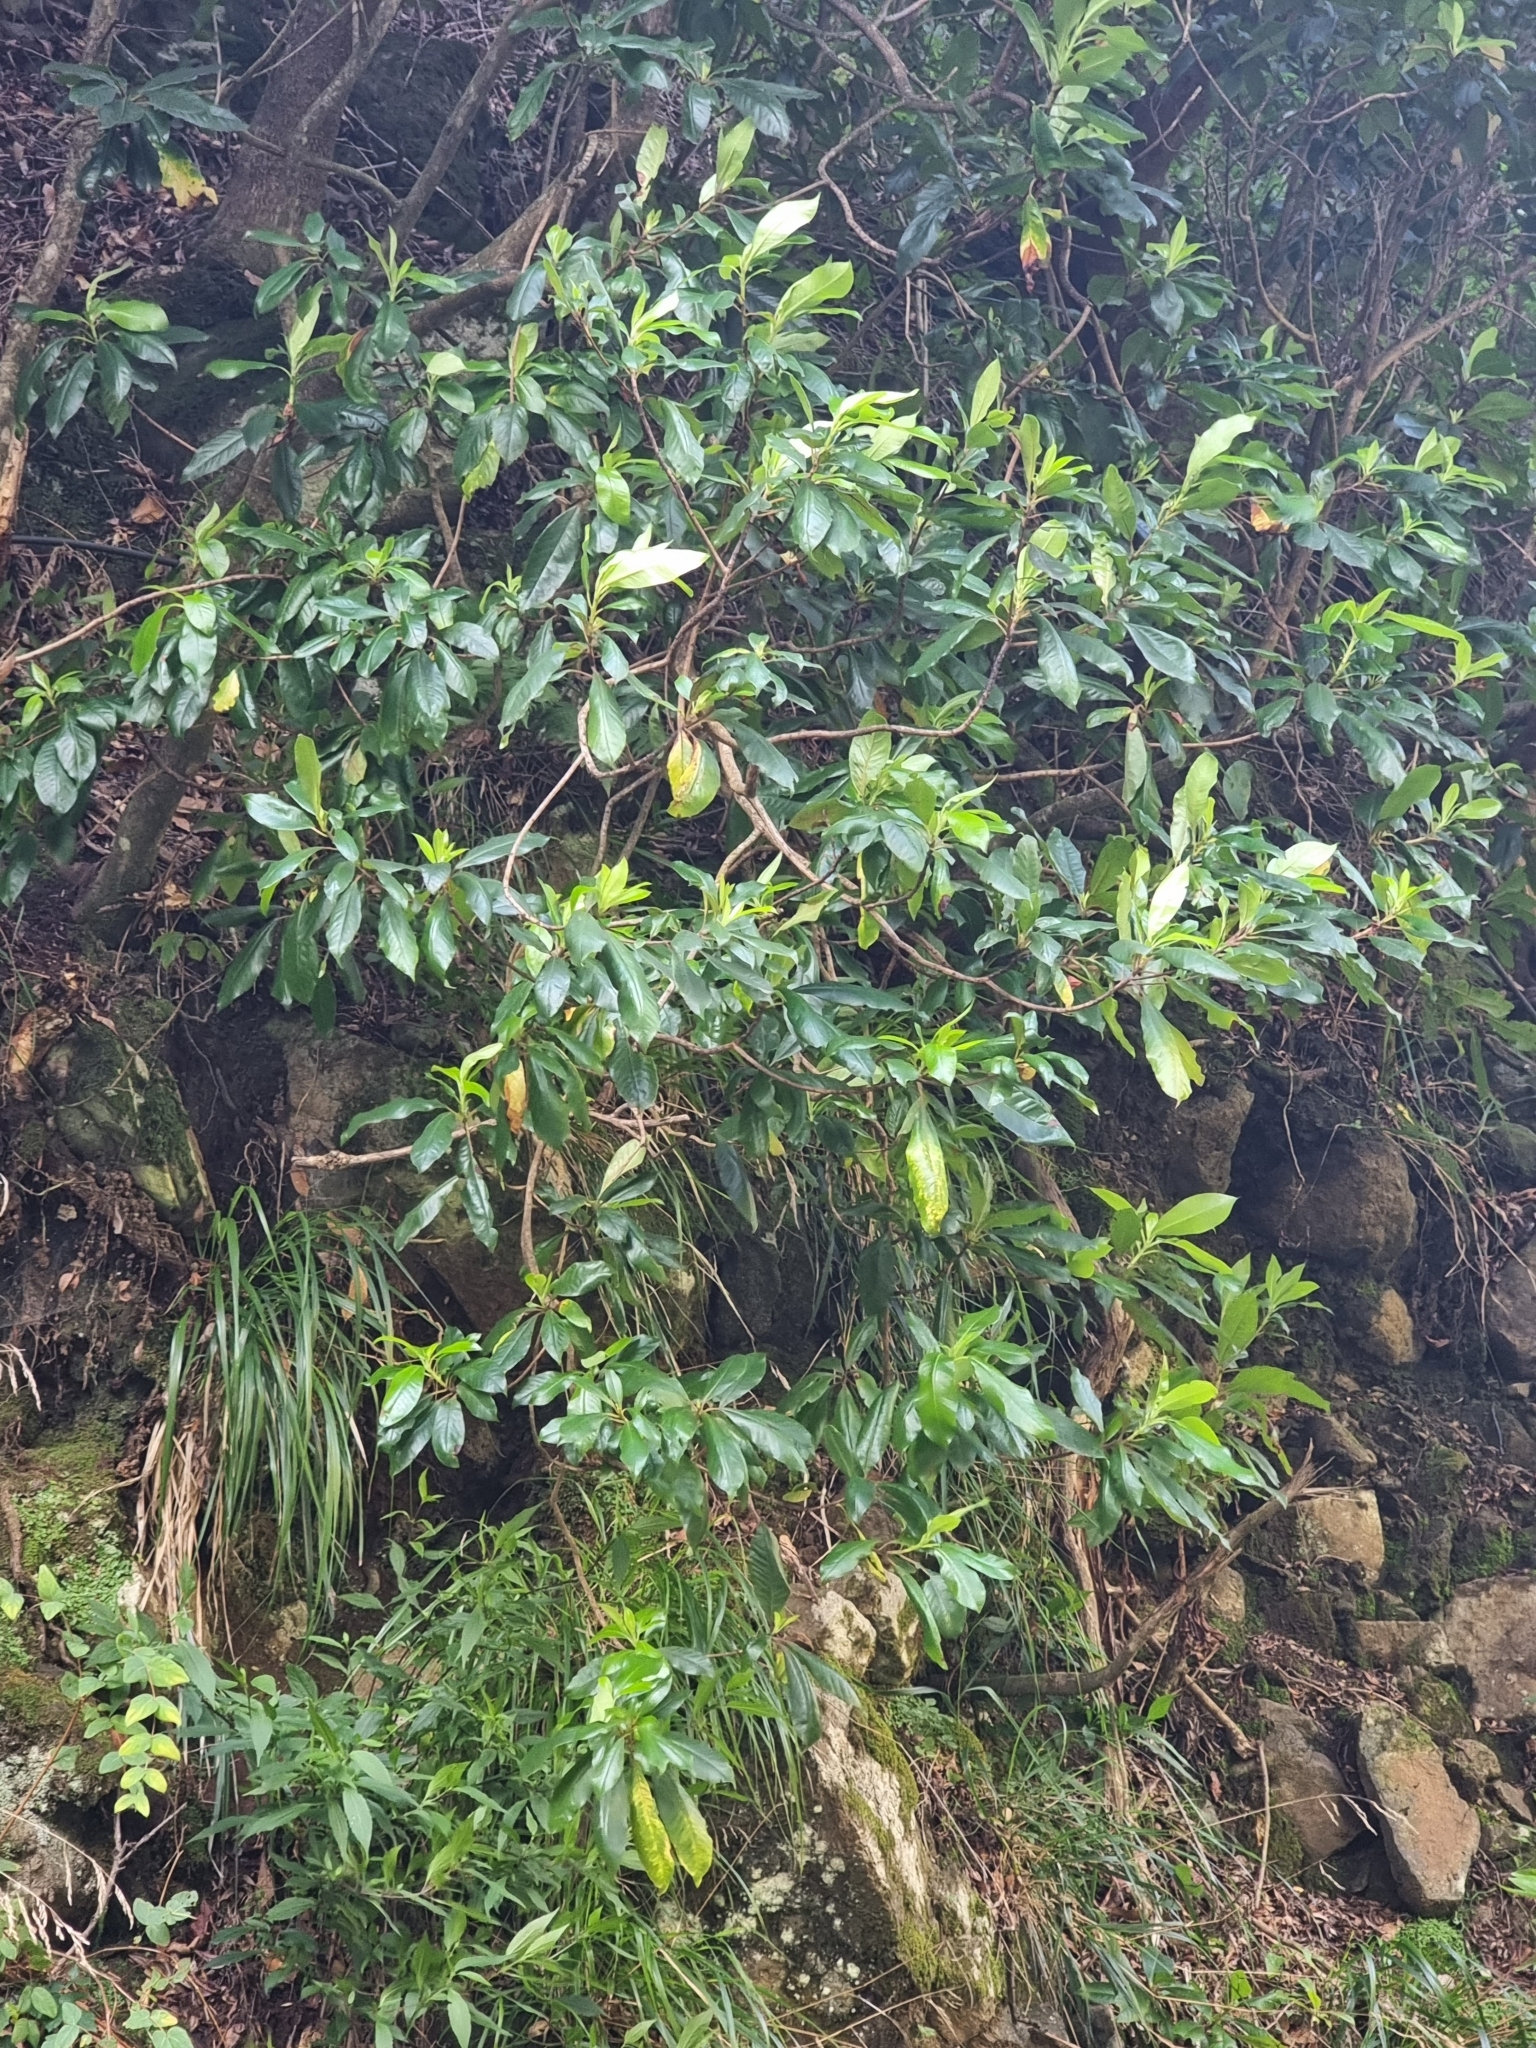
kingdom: Plantae
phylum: Tracheophyta
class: Magnoliopsida
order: Ericales
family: Clethraceae
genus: Clethra
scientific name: Clethra arborea
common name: Lily-of-the-valley-tree
